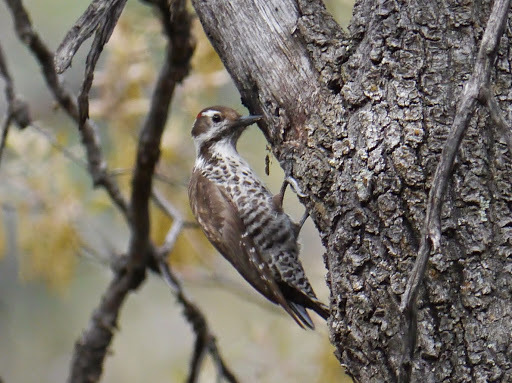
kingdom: Animalia
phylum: Chordata
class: Aves
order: Piciformes
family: Picidae
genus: Leuconotopicus
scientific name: Leuconotopicus arizonae
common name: Arizona woodpecker
